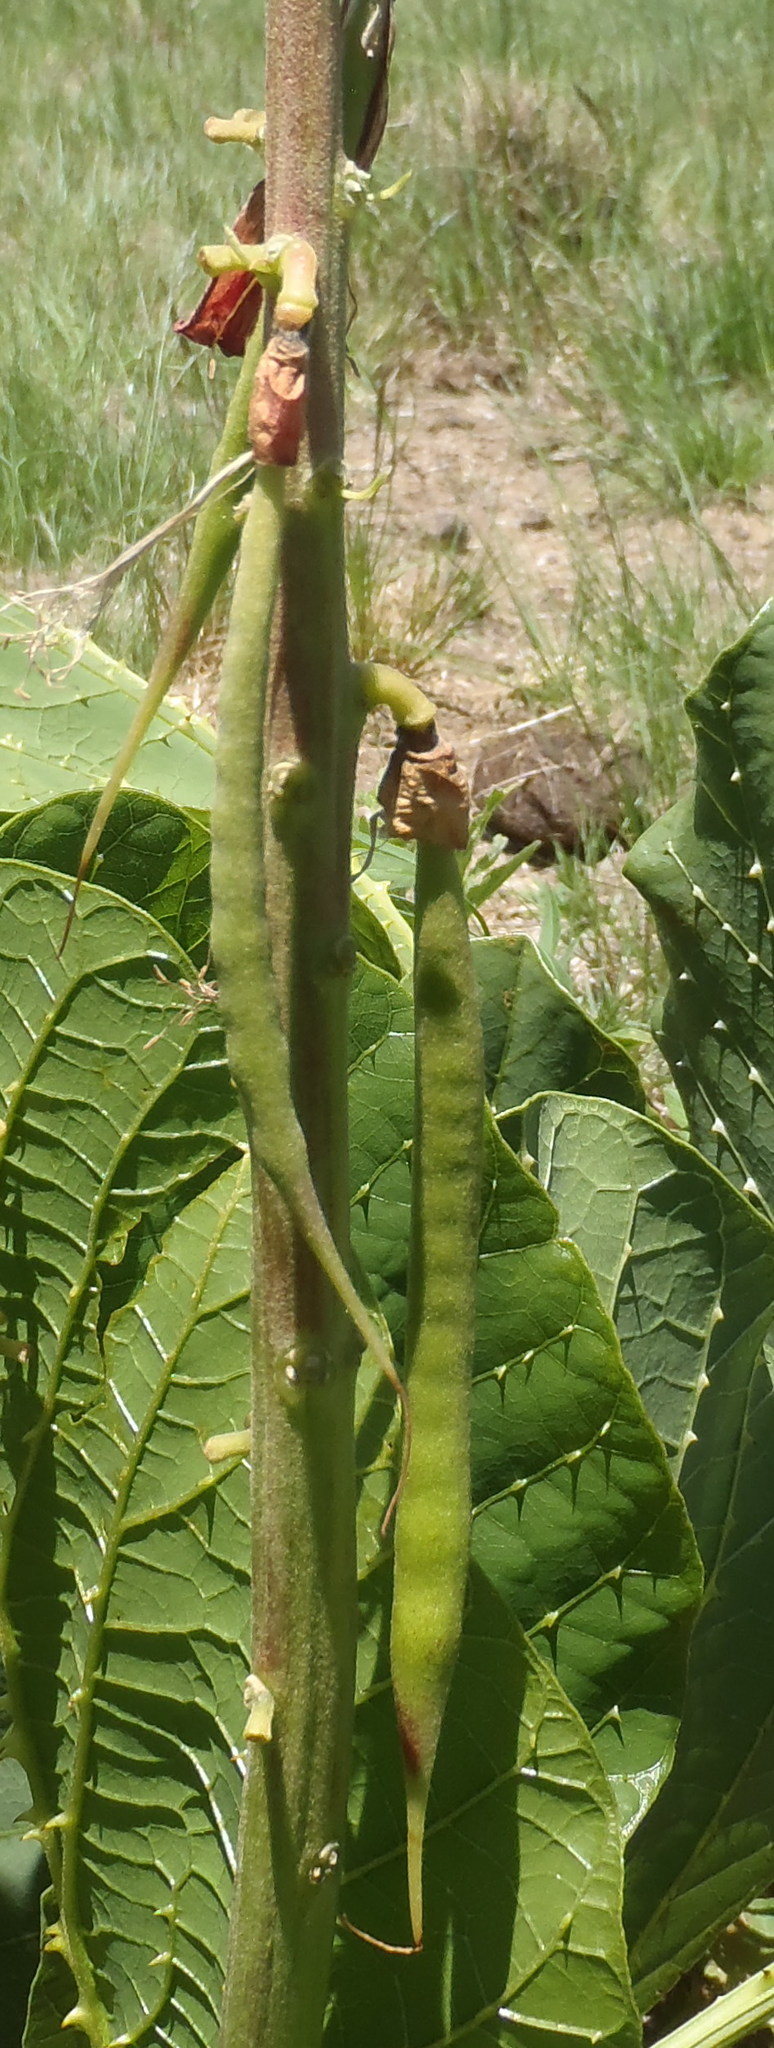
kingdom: Plantae
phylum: Tracheophyta
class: Magnoliopsida
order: Fabales
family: Fabaceae
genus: Erythrina
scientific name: Erythrina zeyheri
